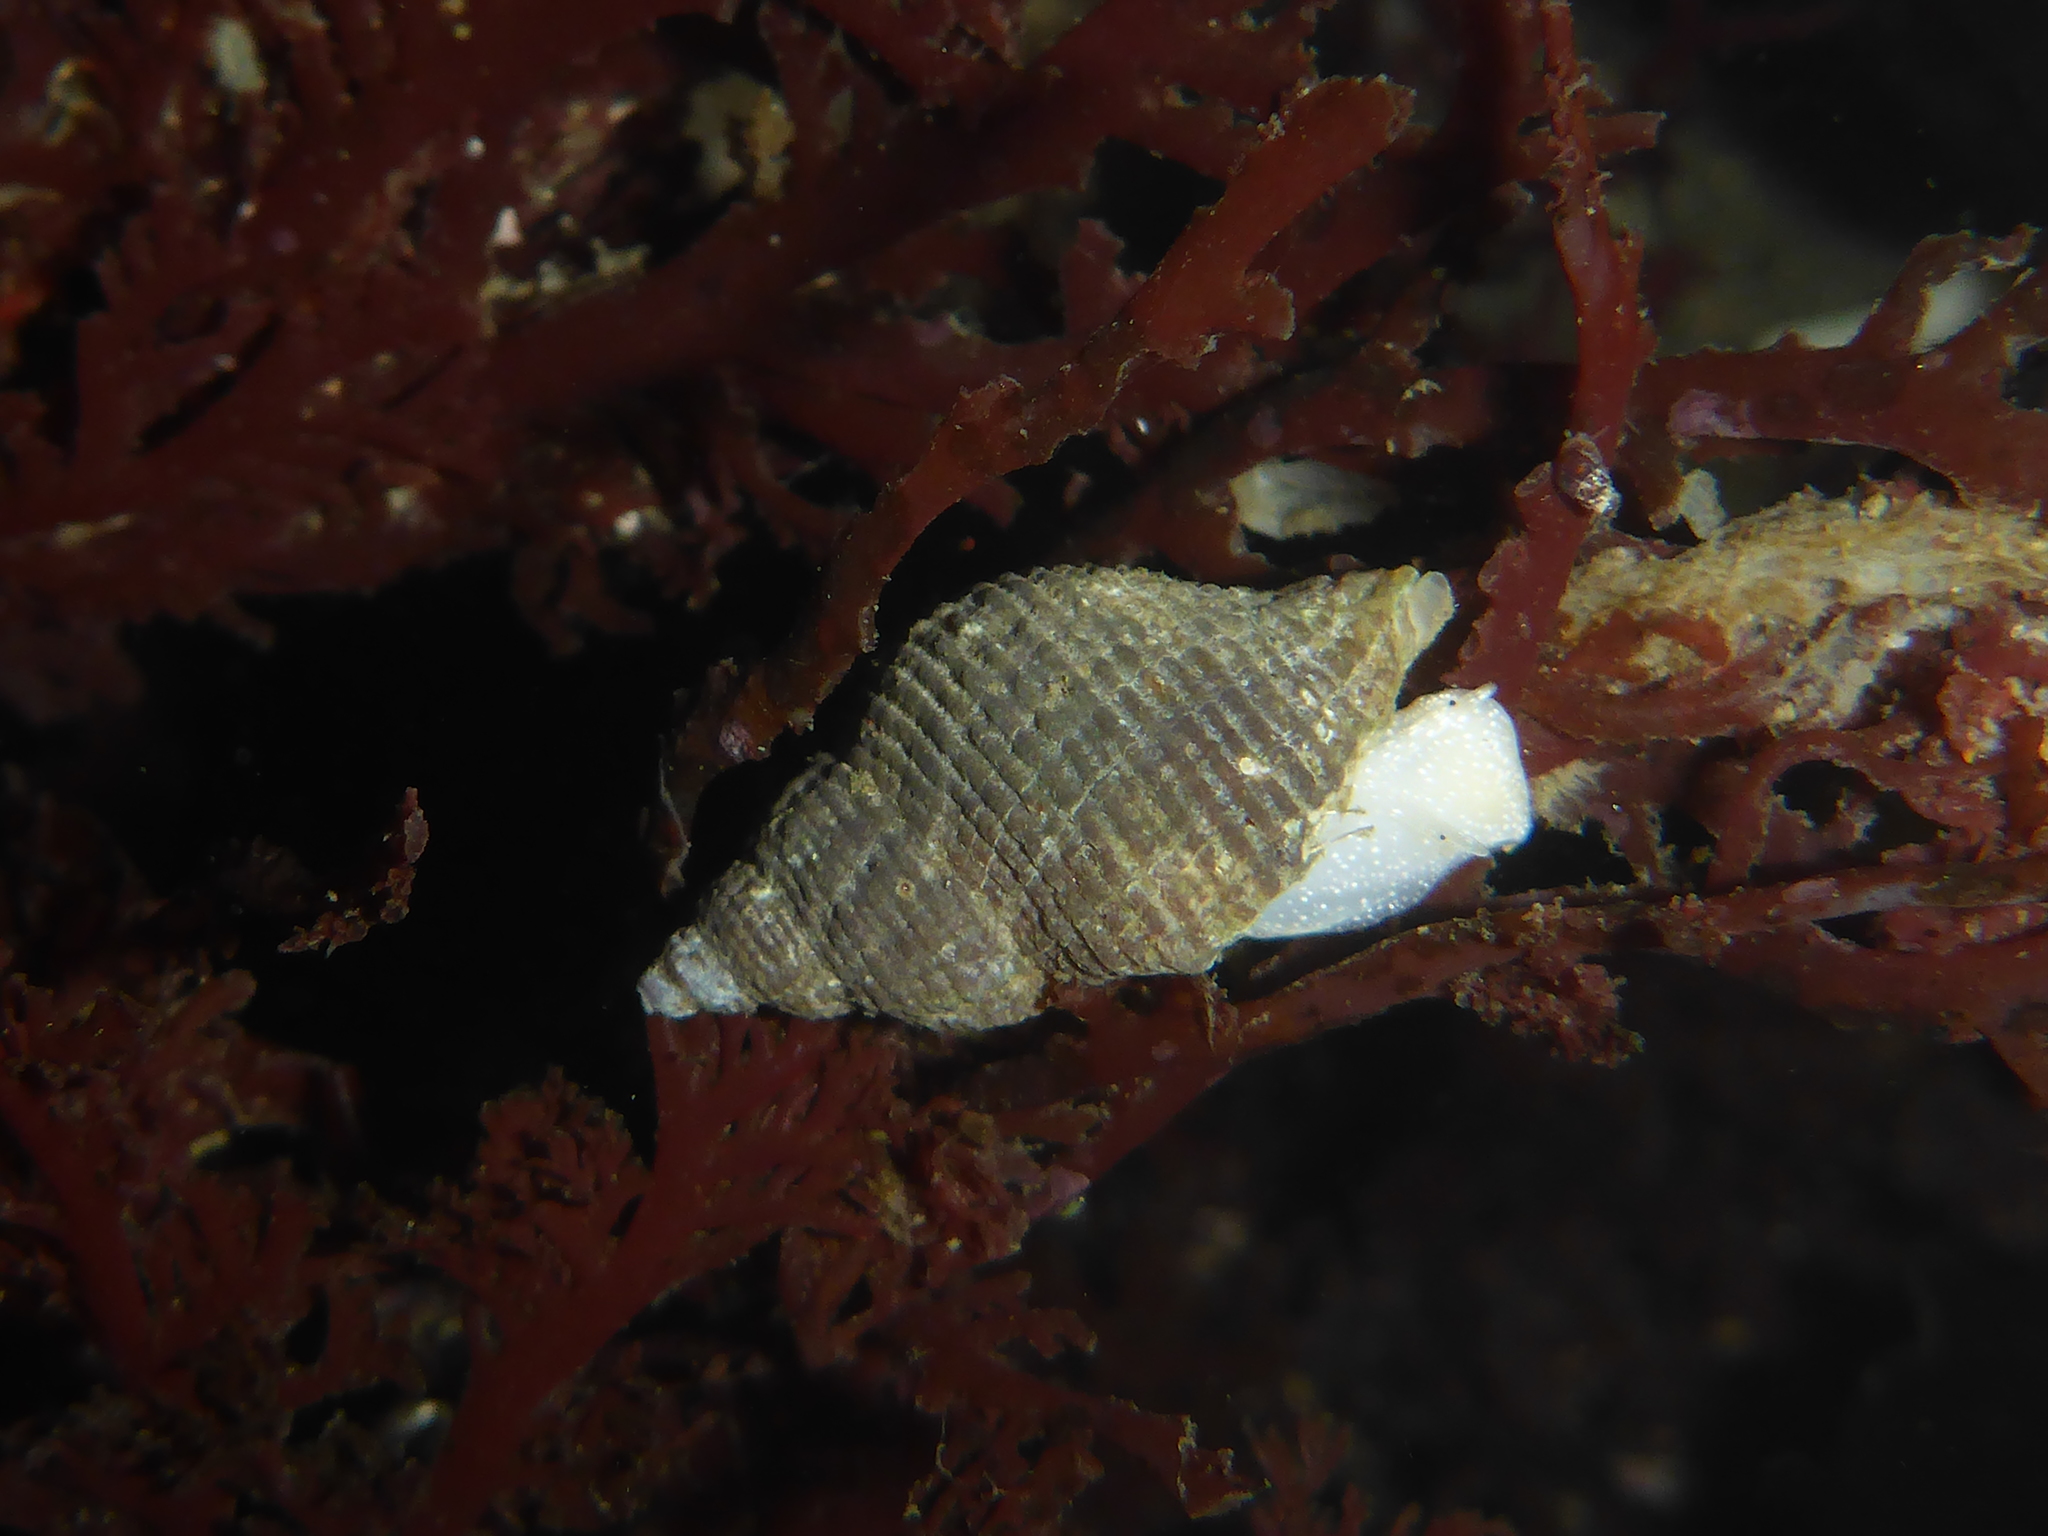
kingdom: Animalia
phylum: Mollusca
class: Gastropoda
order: Neogastropoda
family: Tudiclidae
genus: Lirabuccinum
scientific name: Lirabuccinum dirum
